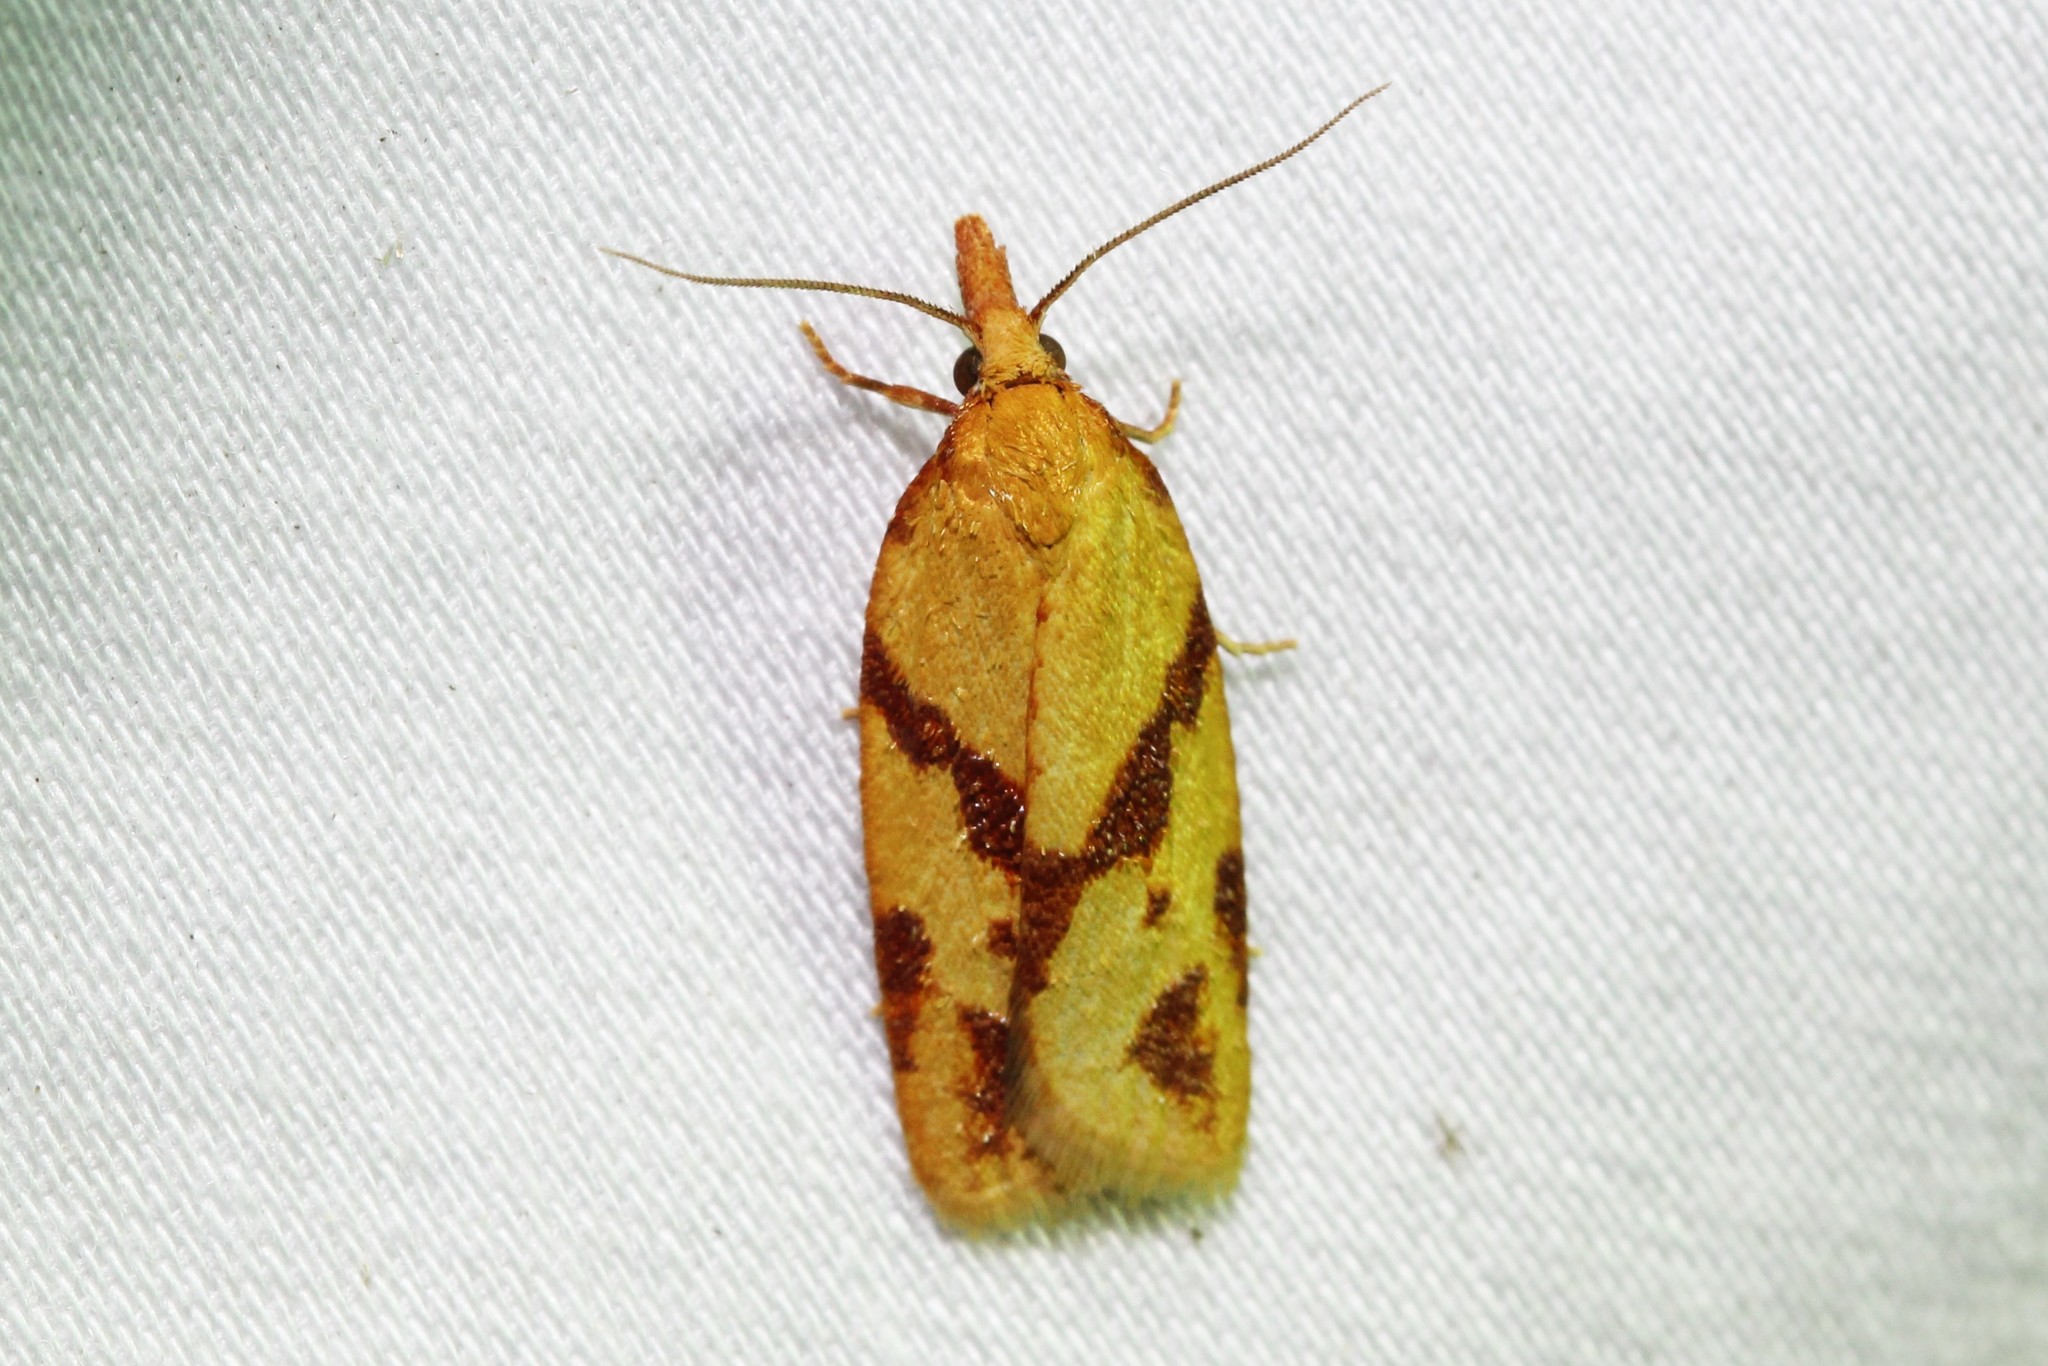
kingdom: Animalia
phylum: Arthropoda
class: Insecta
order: Lepidoptera
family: Tortricidae
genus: Sparganothis
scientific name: Sparganothis unifasciana
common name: One-lined sparganothis moth
